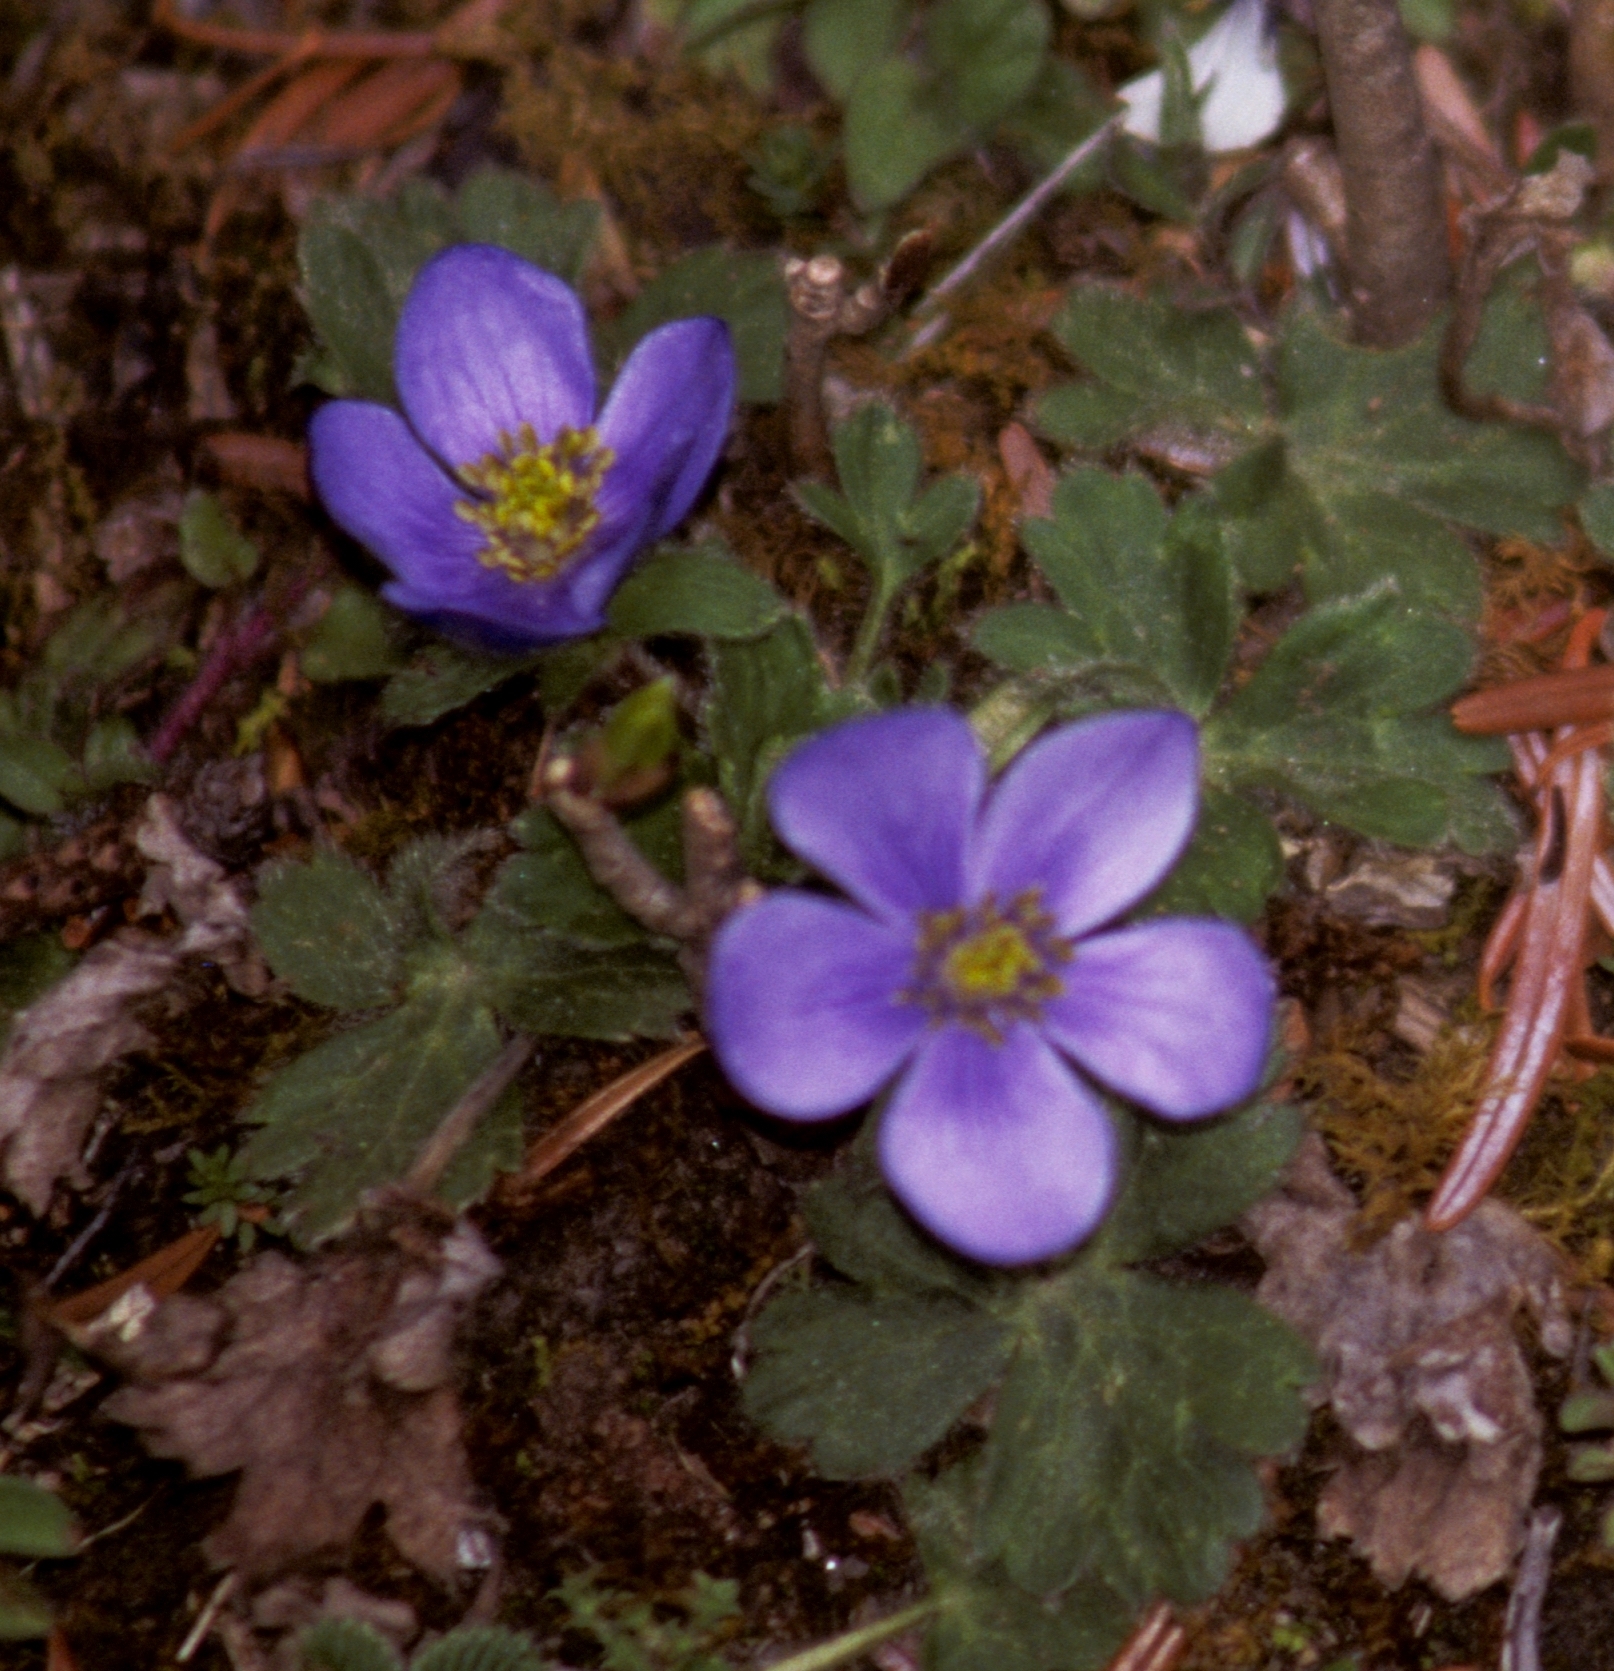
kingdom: Plantae
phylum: Tracheophyta
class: Magnoliopsida
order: Ranunculales
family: Ranunculaceae
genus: Anemonastrum
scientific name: Anemonastrum obtusilobum
